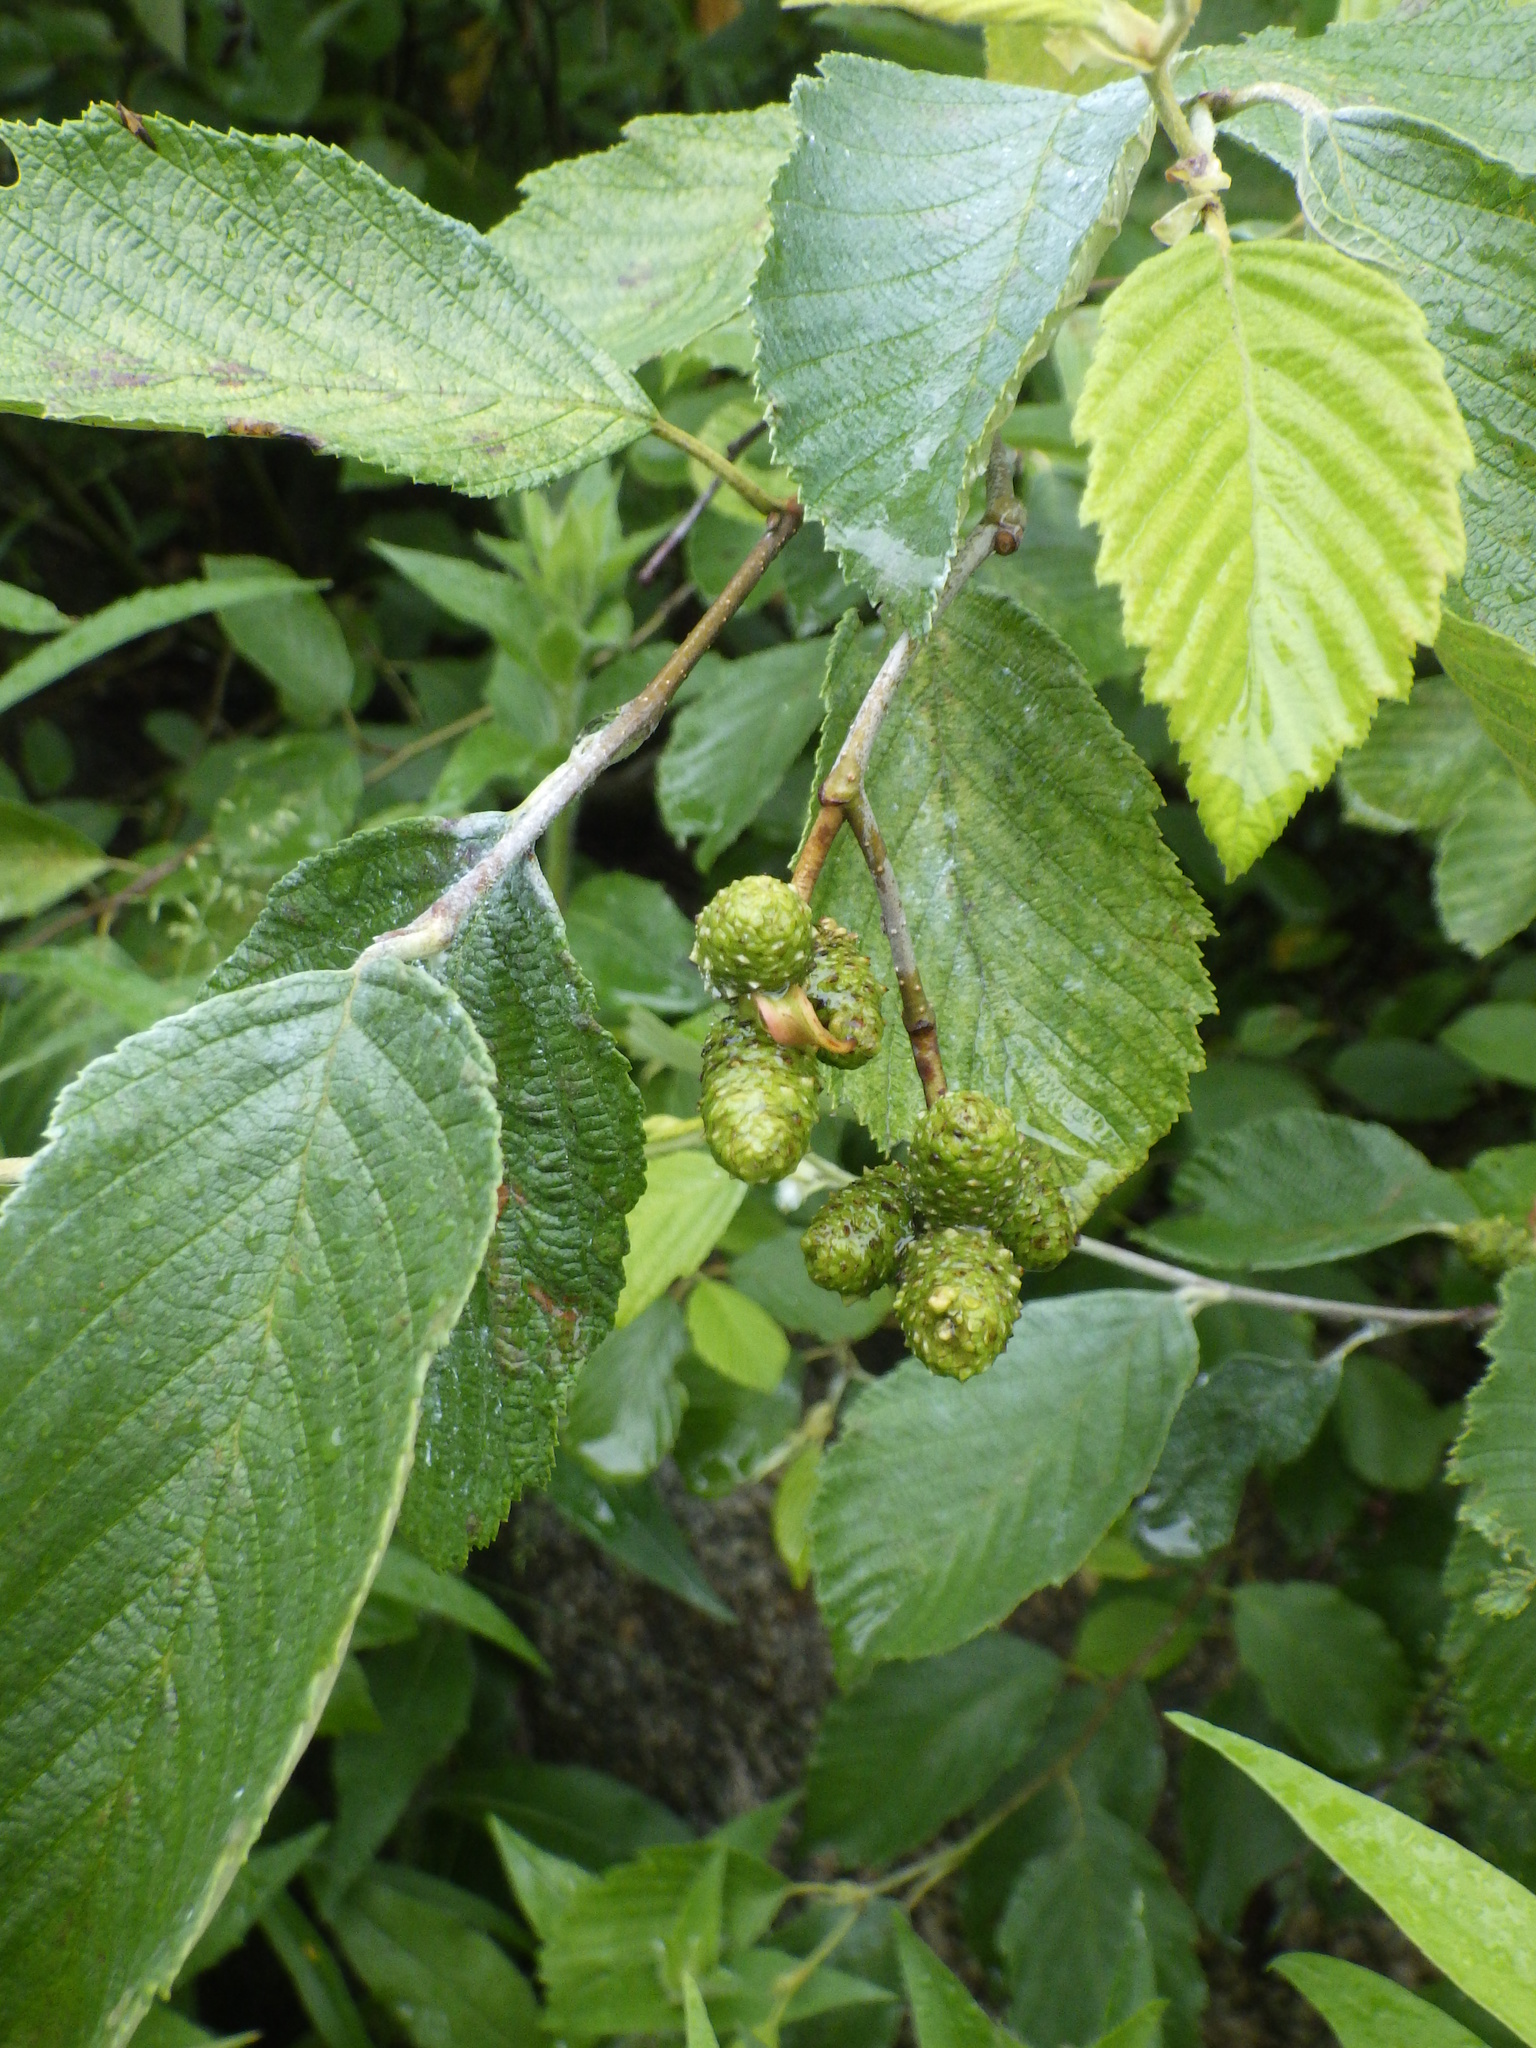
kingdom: Plantae
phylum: Tracheophyta
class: Magnoliopsida
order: Fagales
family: Betulaceae
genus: Alnus
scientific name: Alnus incana
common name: Grey alder
